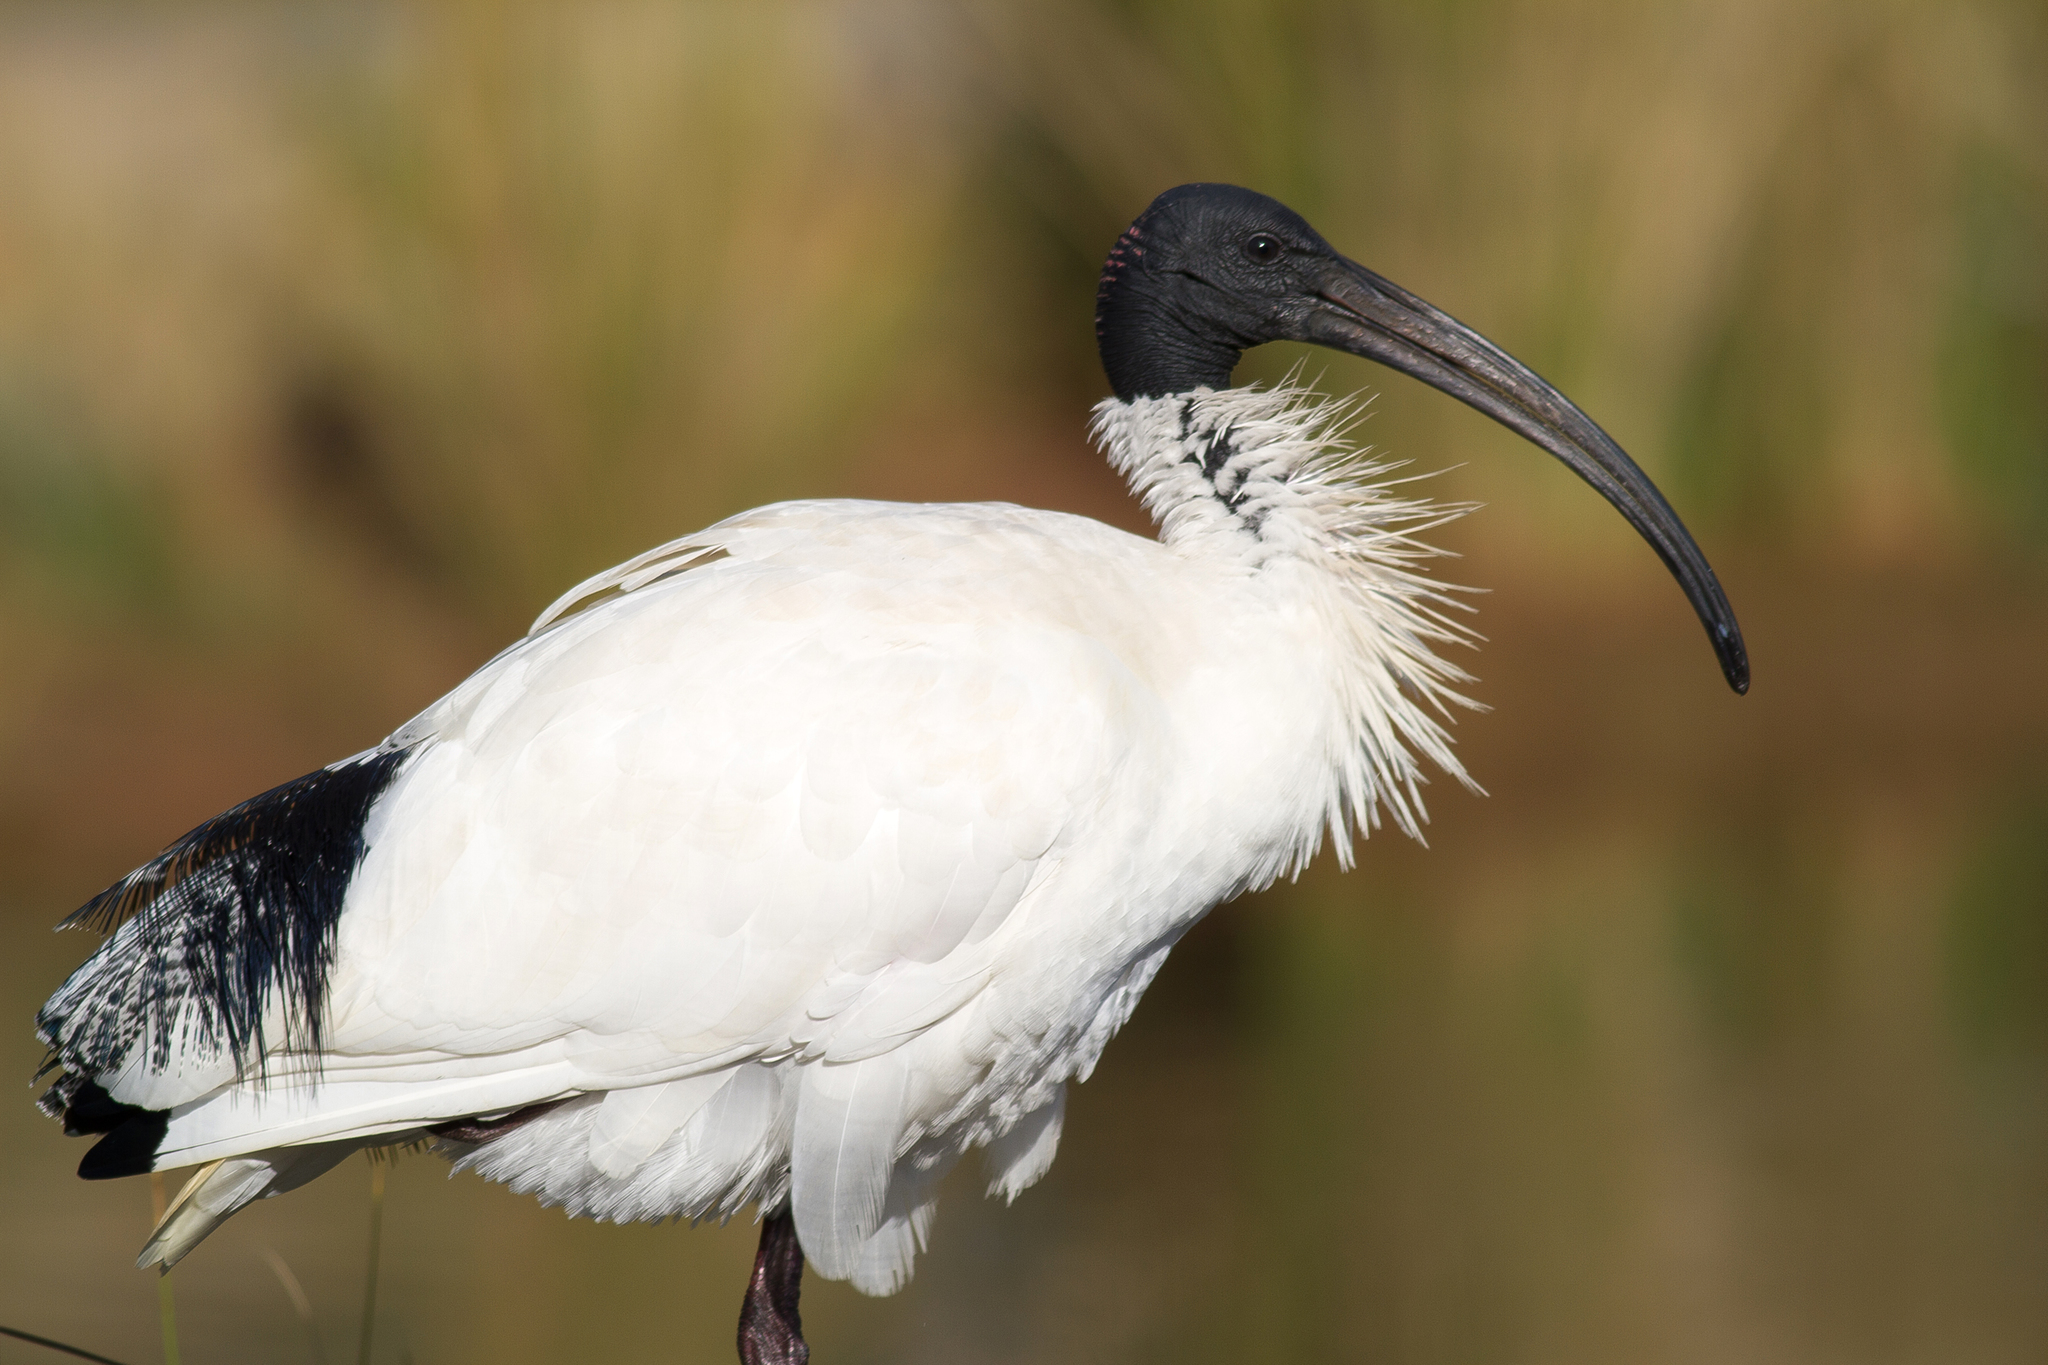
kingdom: Animalia
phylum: Chordata
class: Aves
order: Pelecaniformes
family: Threskiornithidae
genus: Threskiornis
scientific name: Threskiornis molucca
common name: Australian white ibis
